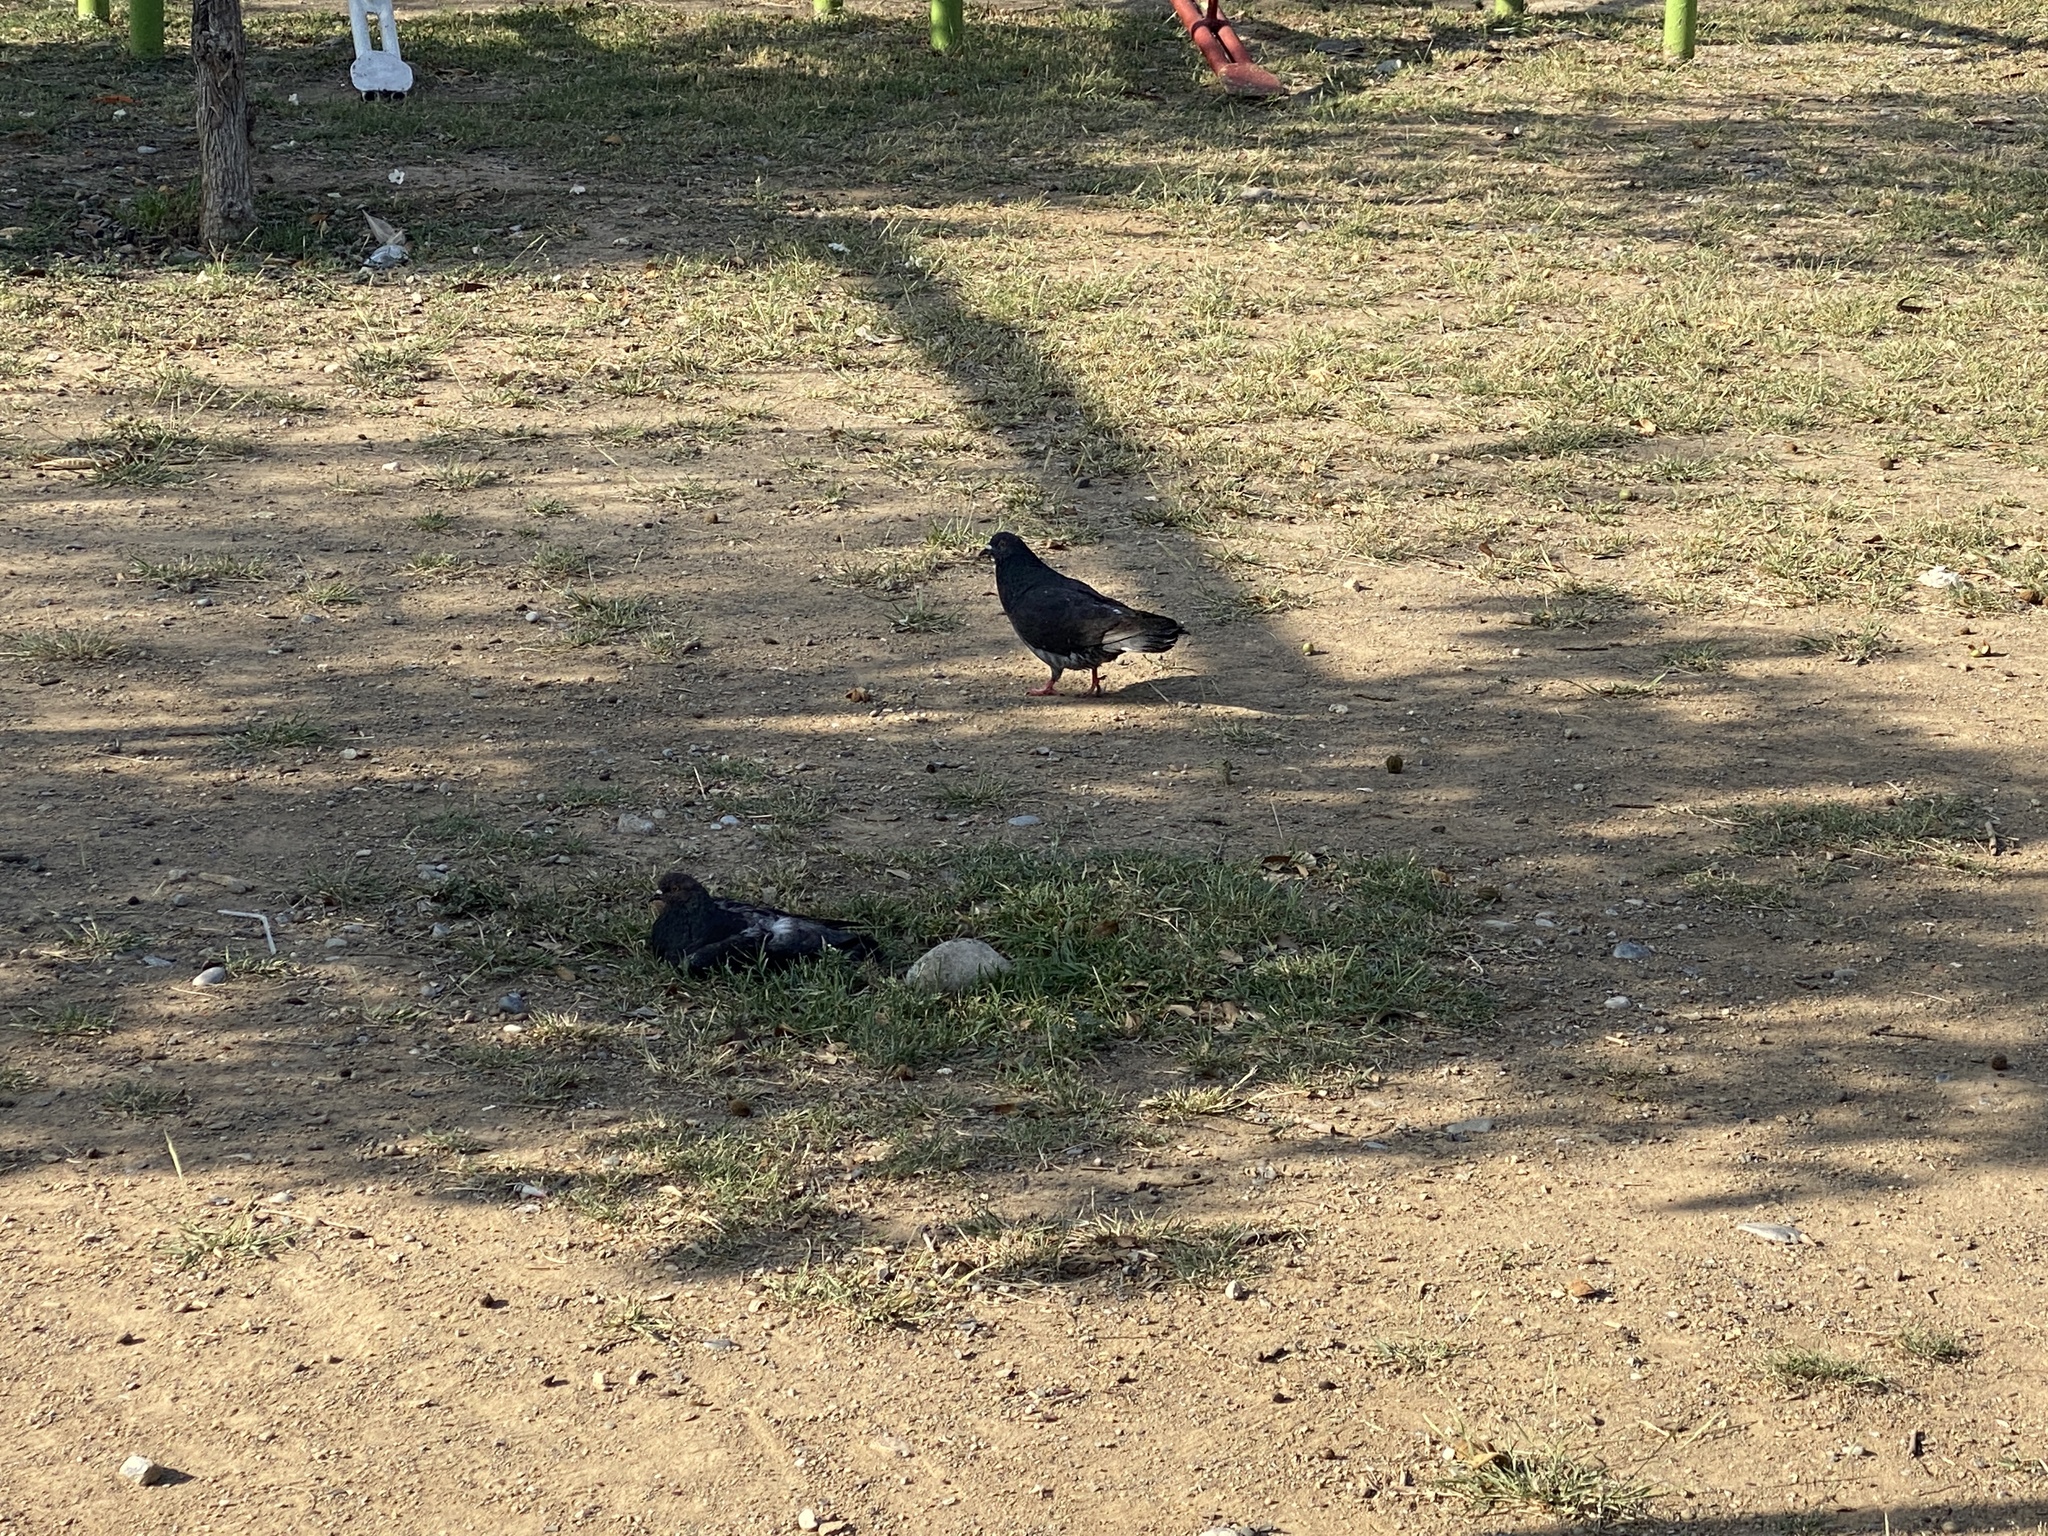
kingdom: Animalia
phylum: Chordata
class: Aves
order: Columbiformes
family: Columbidae
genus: Columba
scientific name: Columba livia
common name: Rock pigeon
